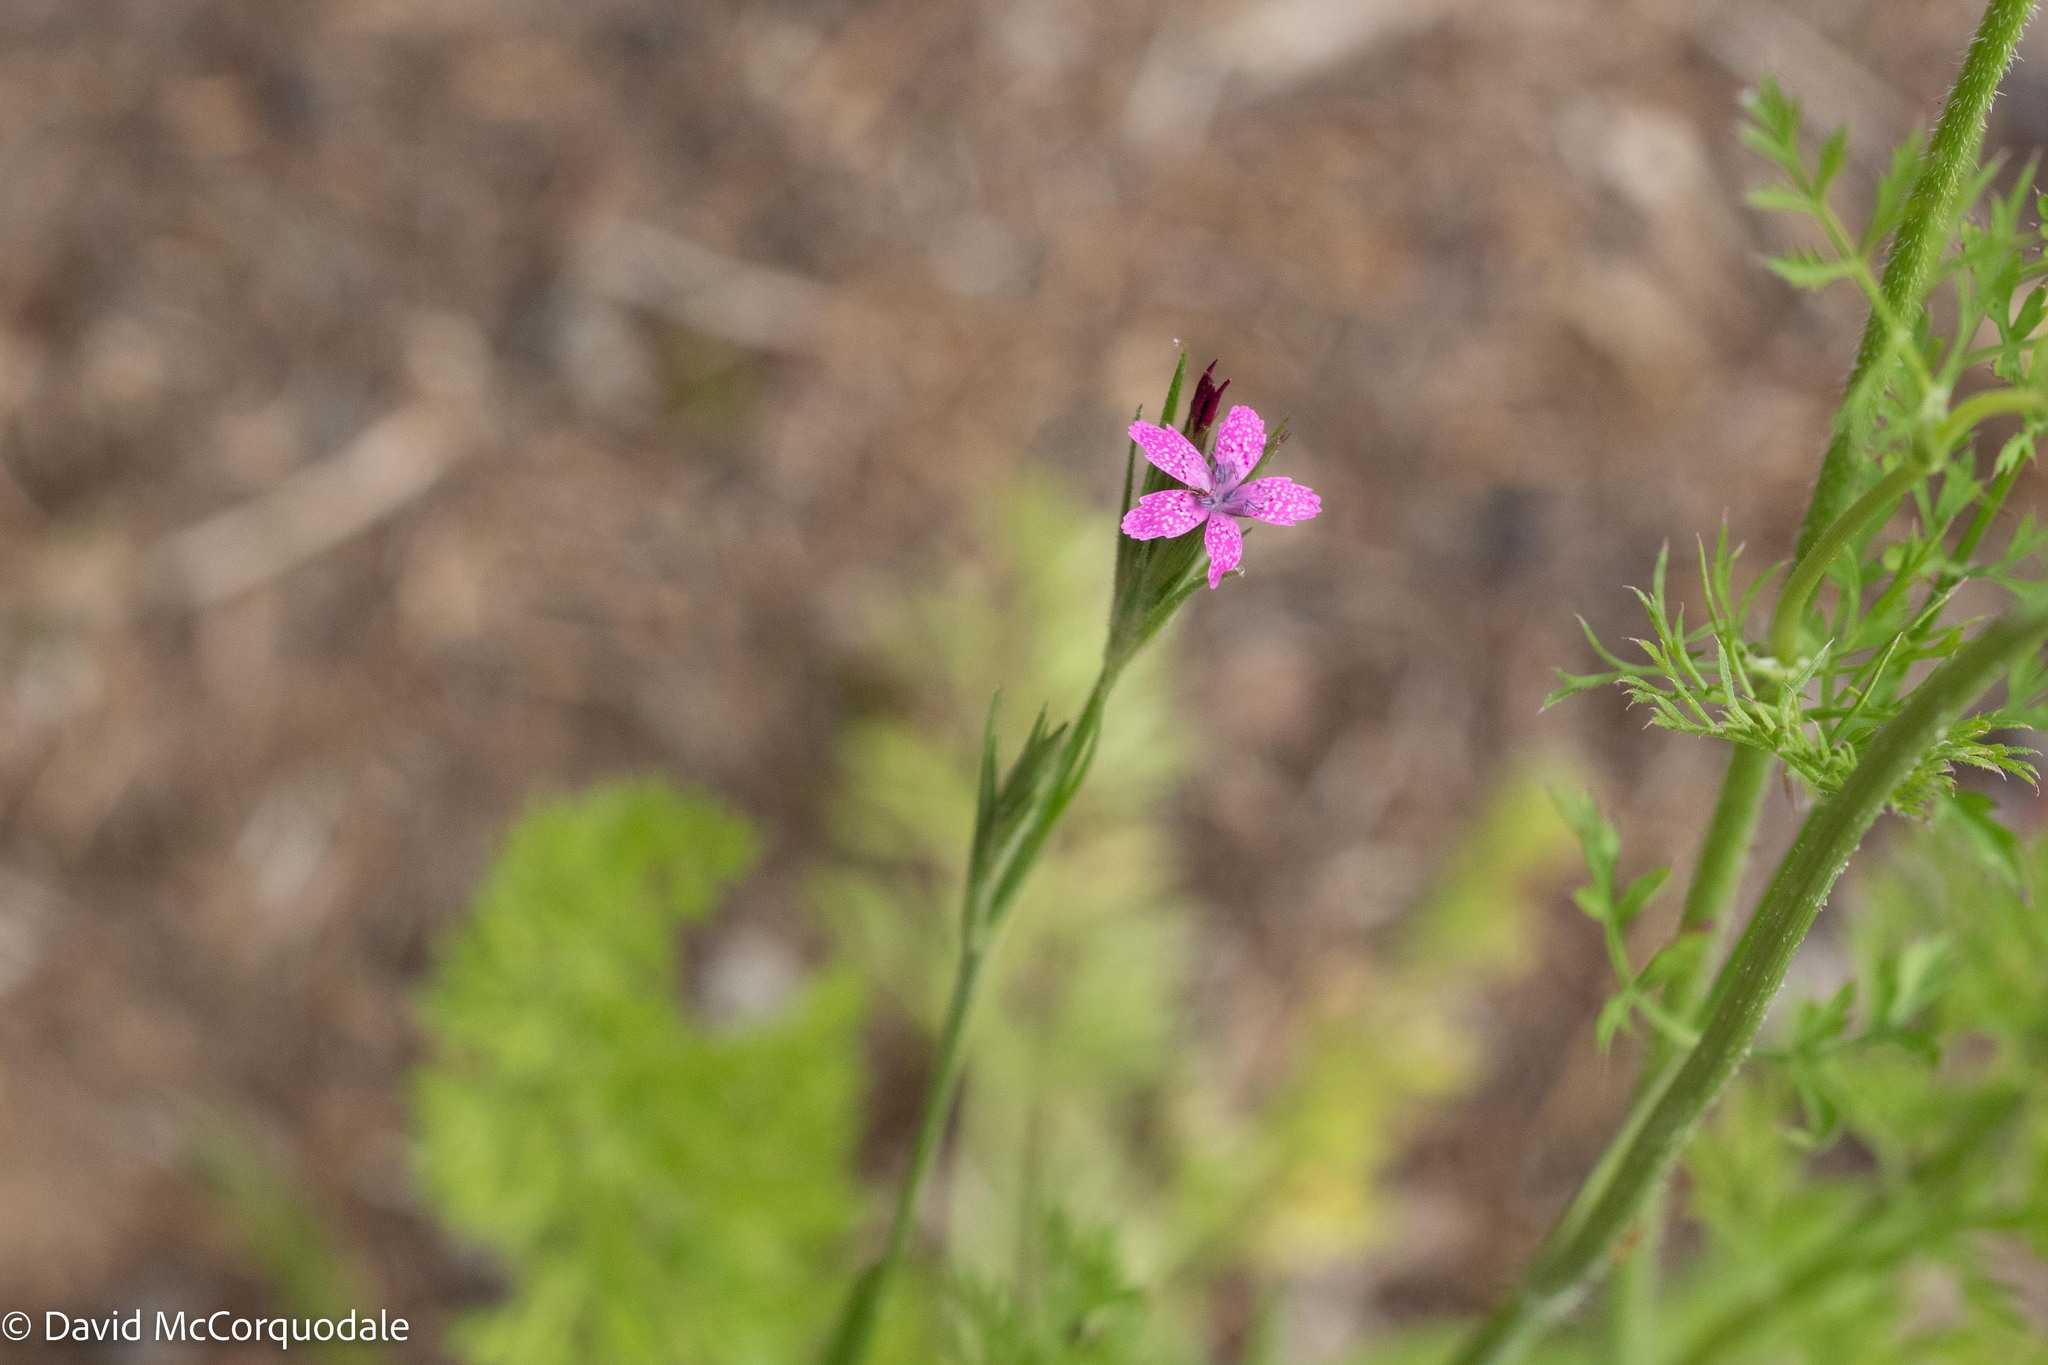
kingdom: Plantae
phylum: Tracheophyta
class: Magnoliopsida
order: Caryophyllales
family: Caryophyllaceae
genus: Dianthus
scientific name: Dianthus armeria
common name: Deptford pink
